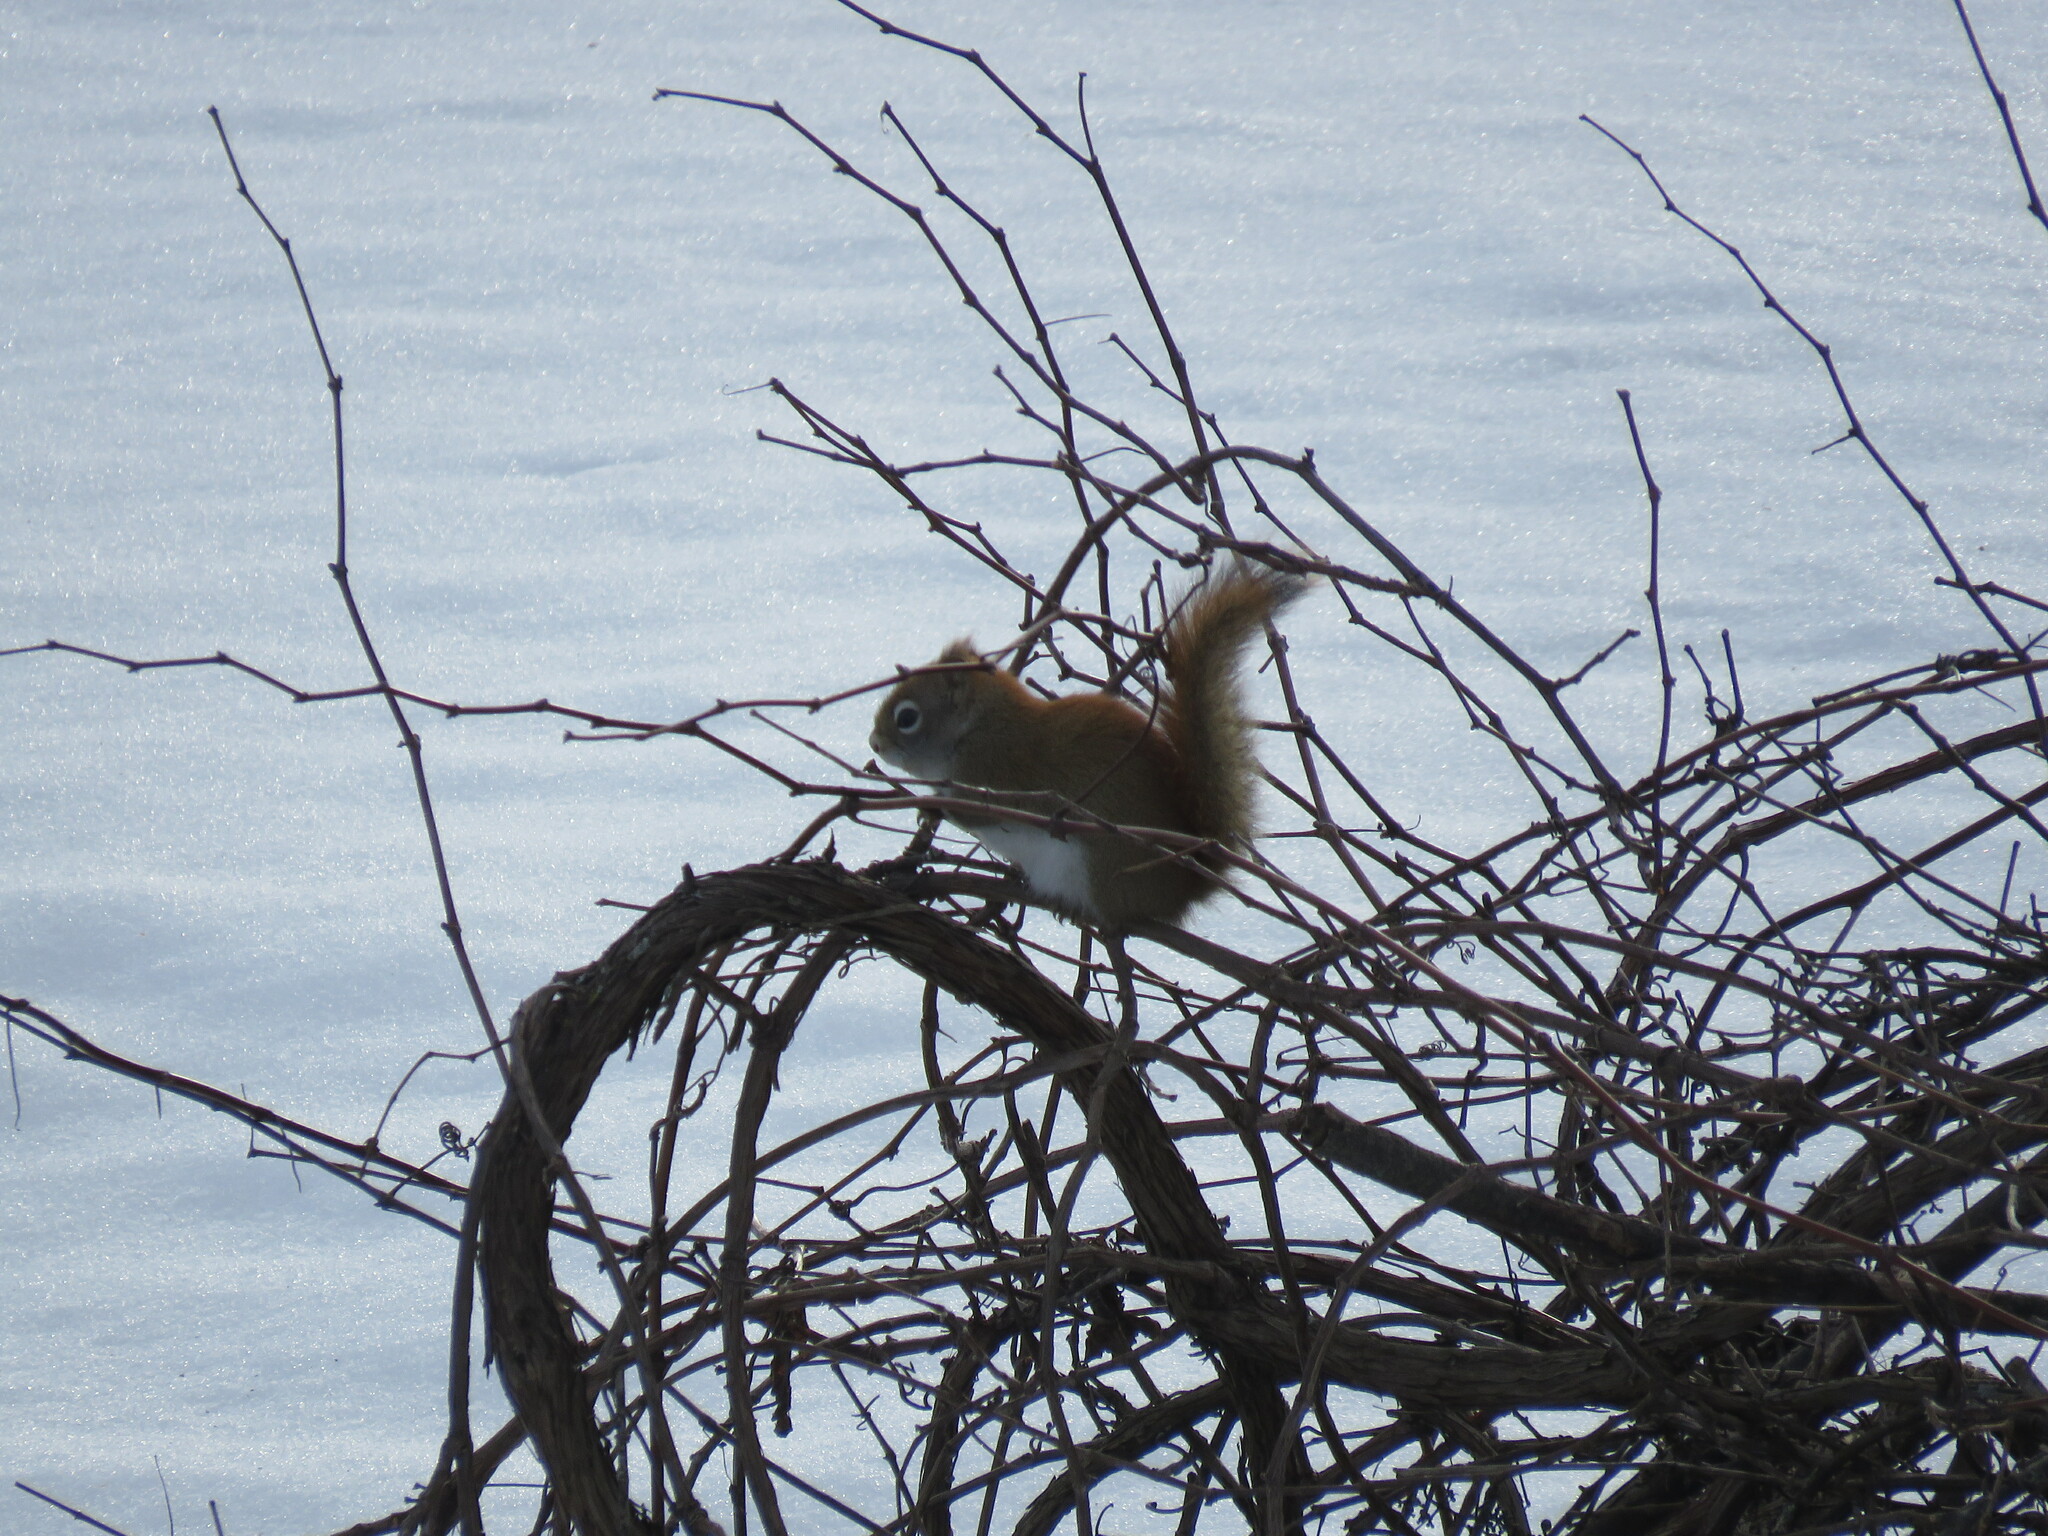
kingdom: Animalia
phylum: Chordata
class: Mammalia
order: Rodentia
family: Sciuridae
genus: Tamiasciurus
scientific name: Tamiasciurus hudsonicus
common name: Red squirrel
